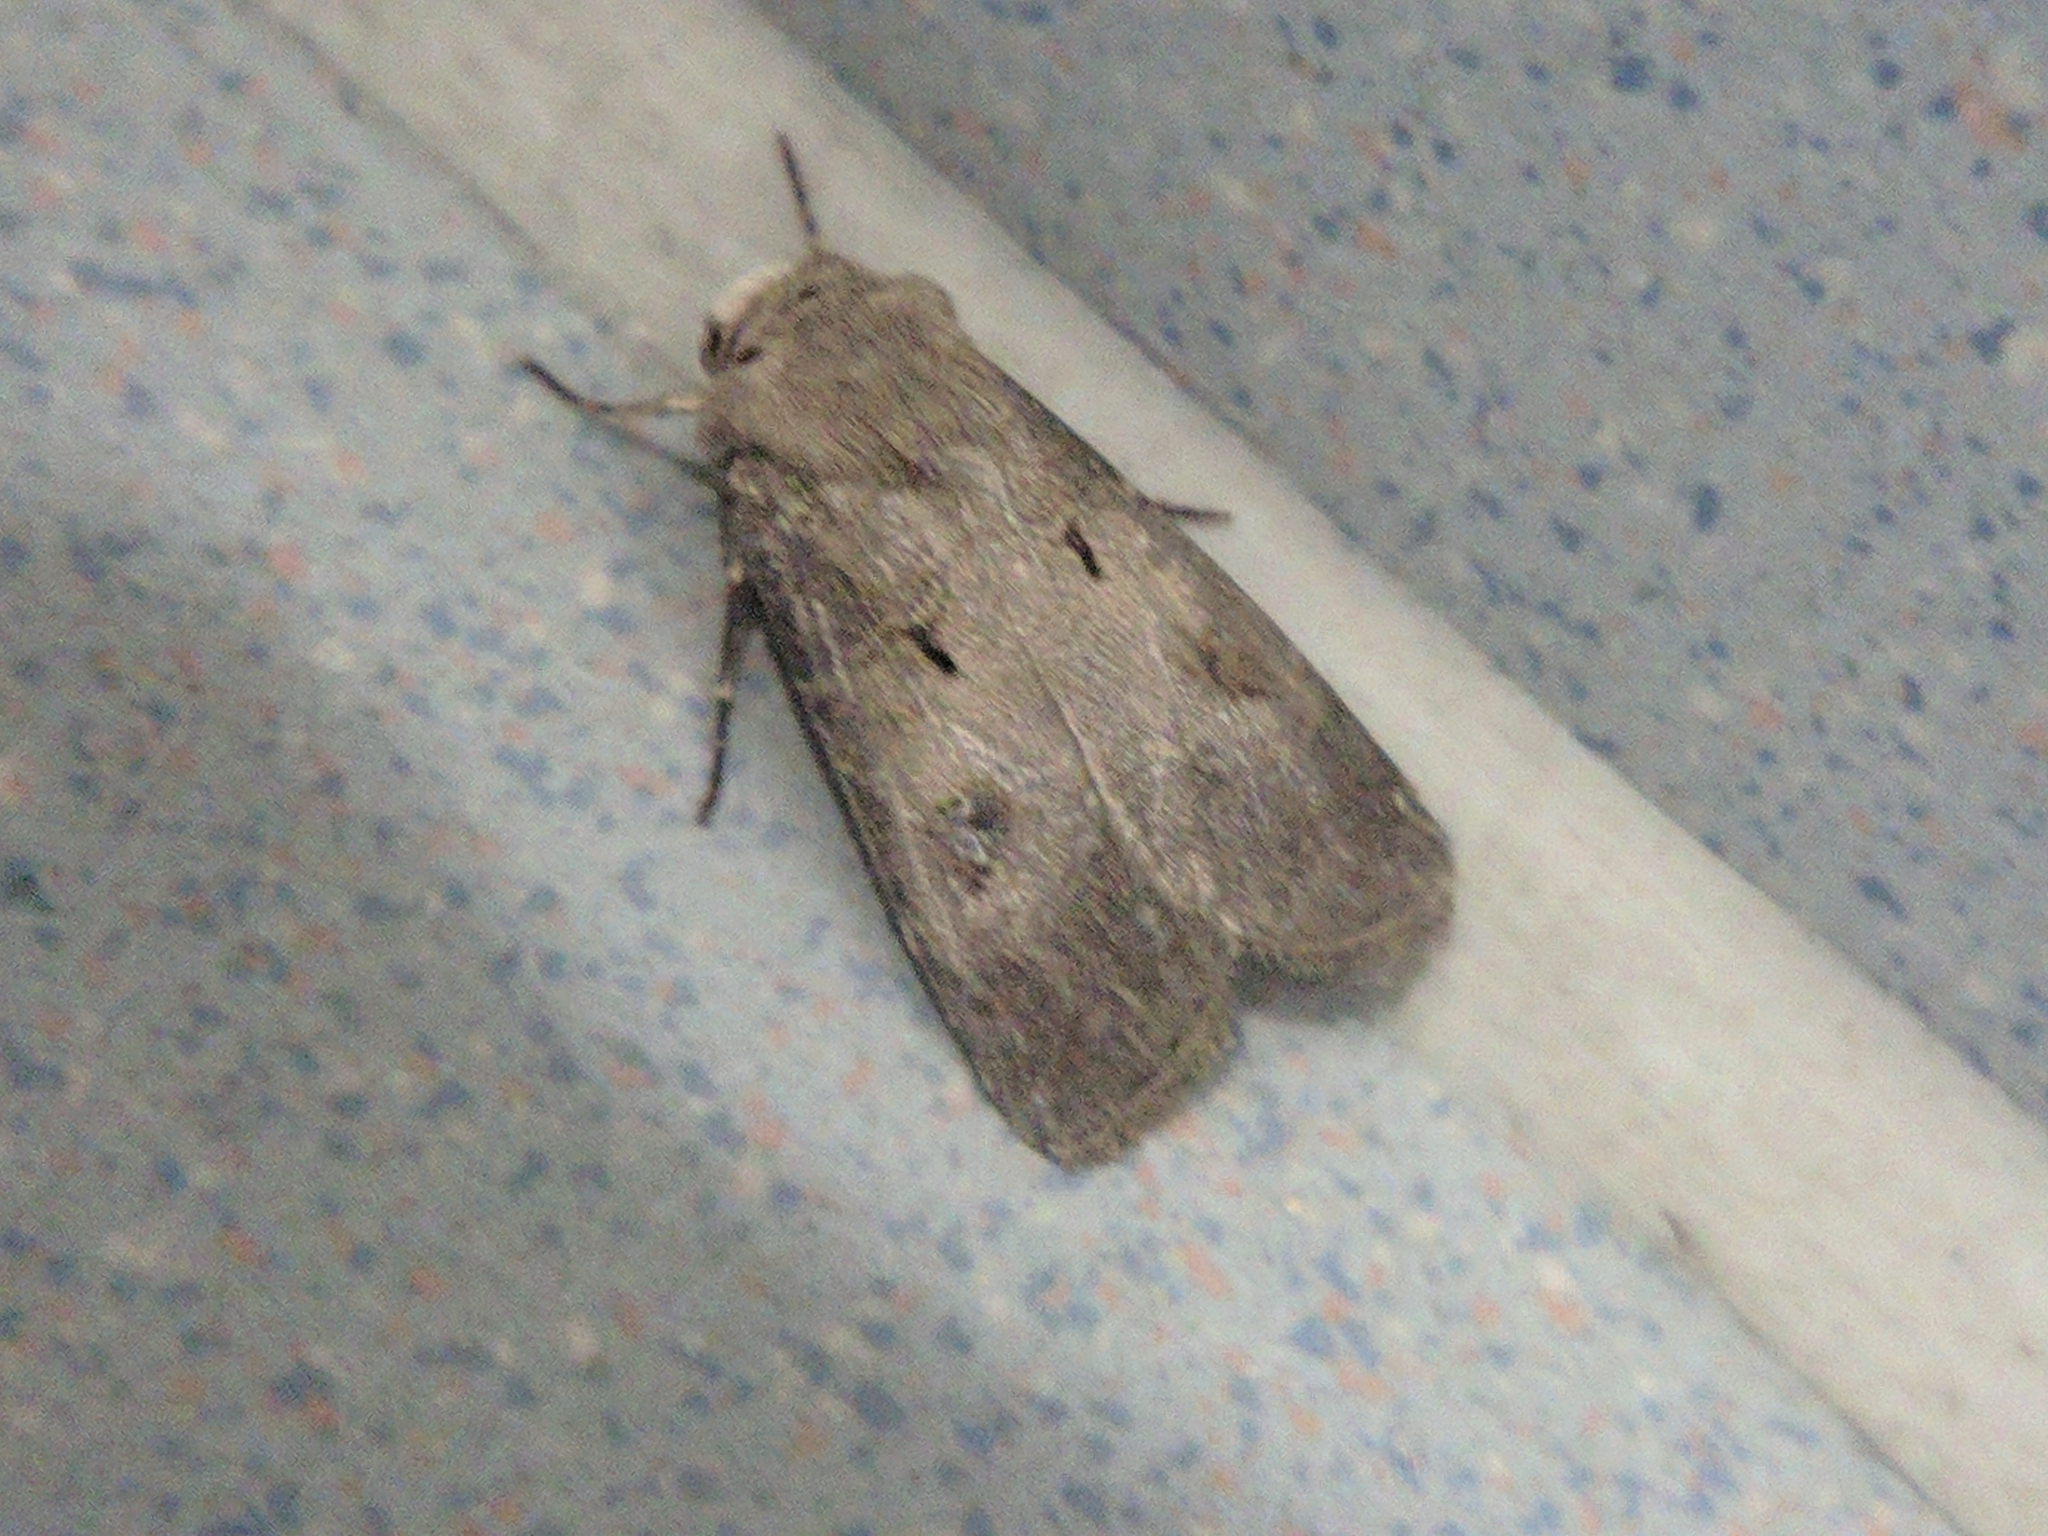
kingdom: Animalia
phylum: Arthropoda
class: Insecta
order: Lepidoptera
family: Noctuidae
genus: Agrotis
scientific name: Agrotis exclamationis
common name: Heart and dart
